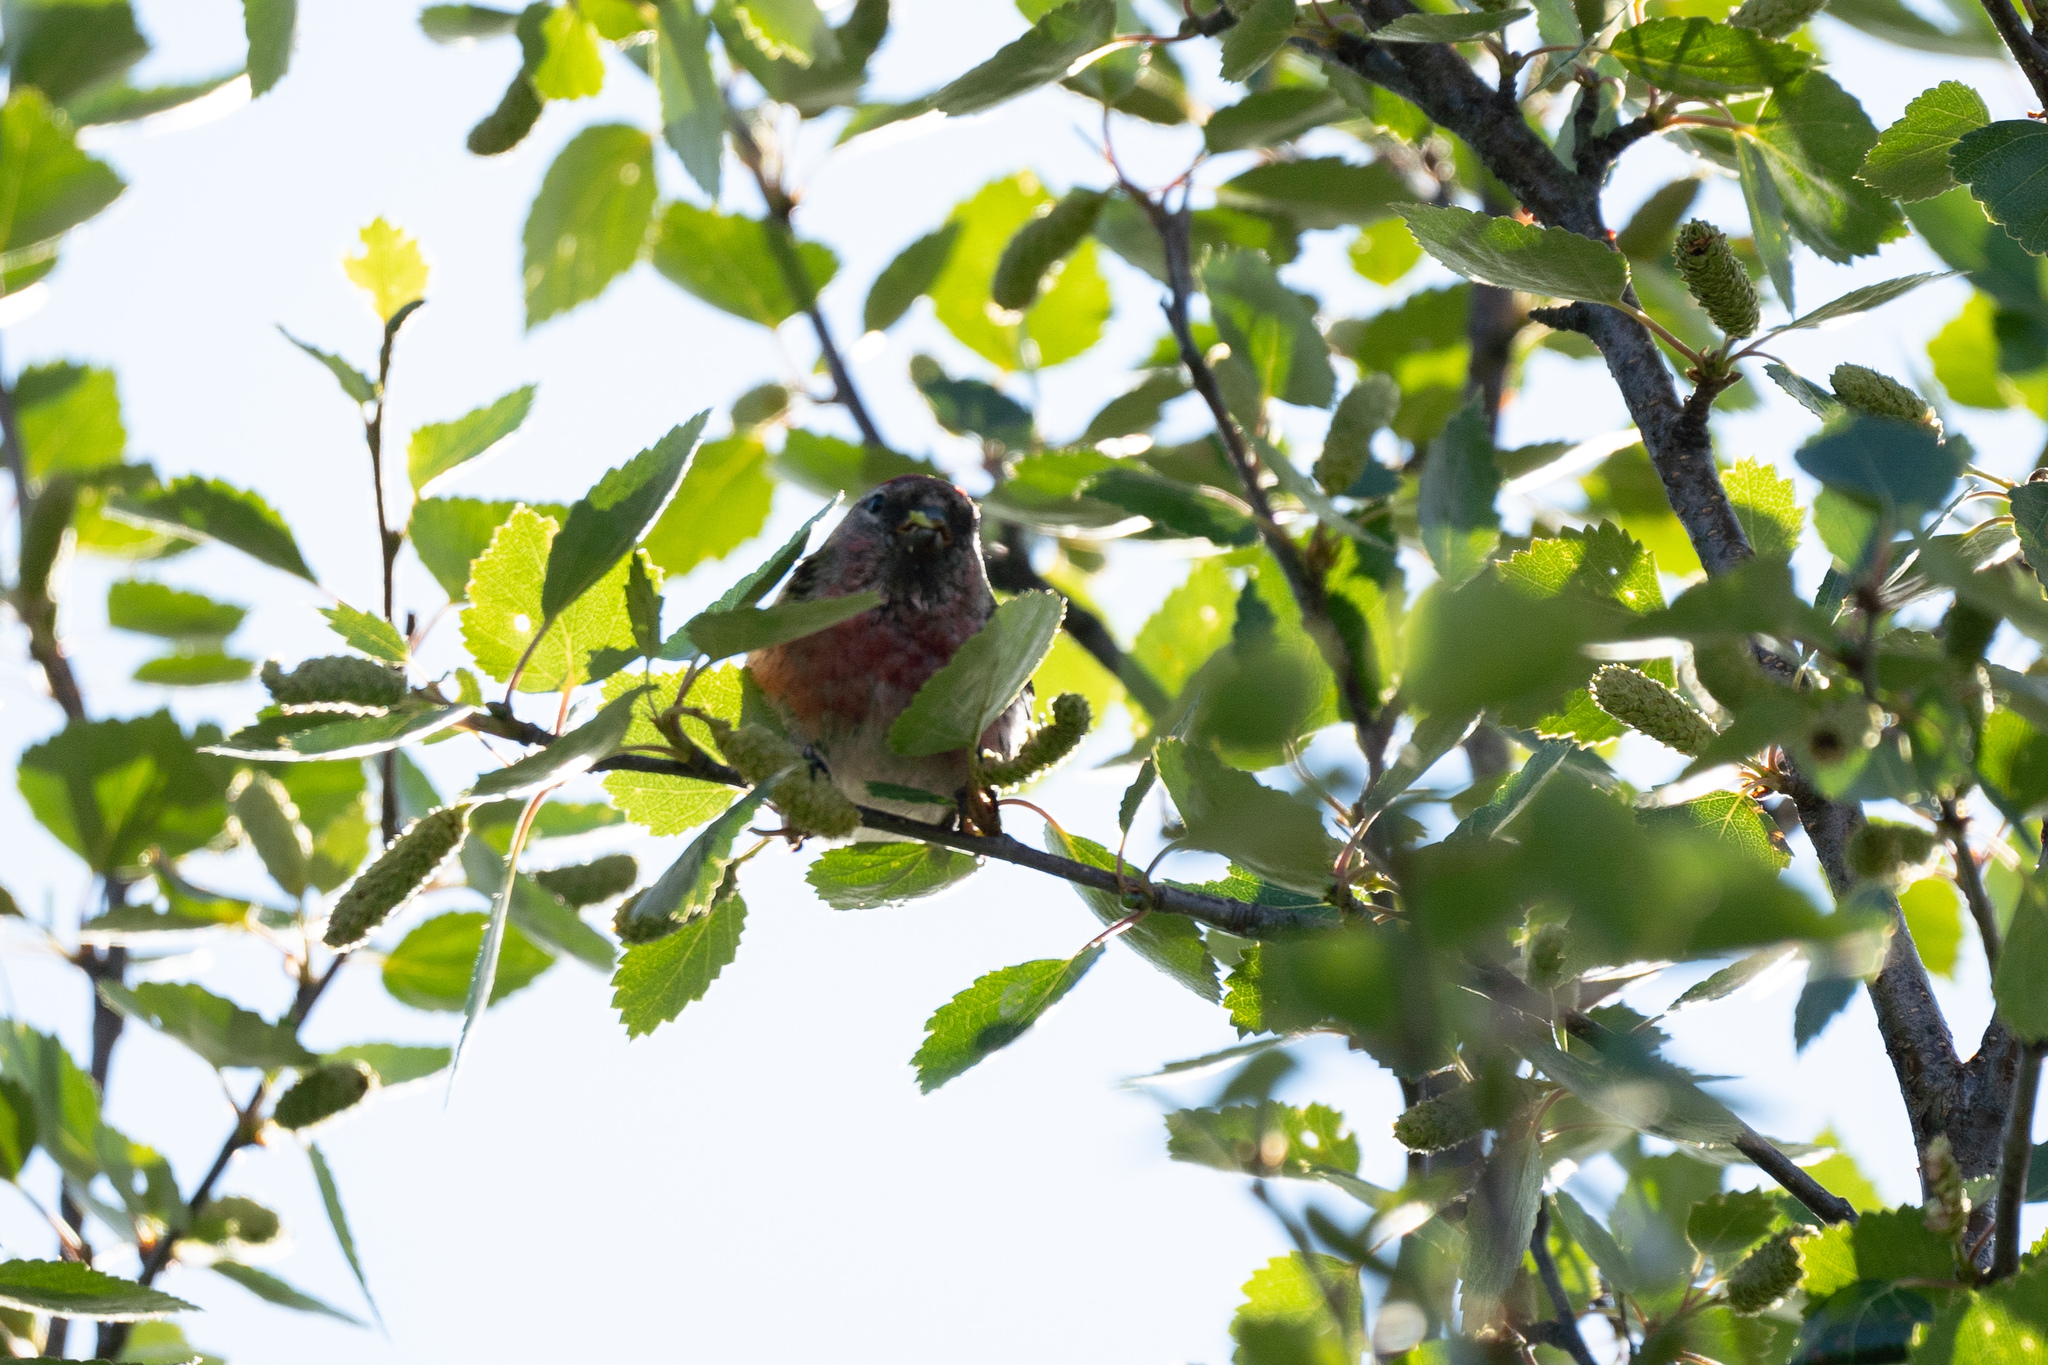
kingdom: Animalia
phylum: Chordata
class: Aves
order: Passeriformes
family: Fringillidae
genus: Linaria
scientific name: Linaria cannabina
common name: Common linnet
